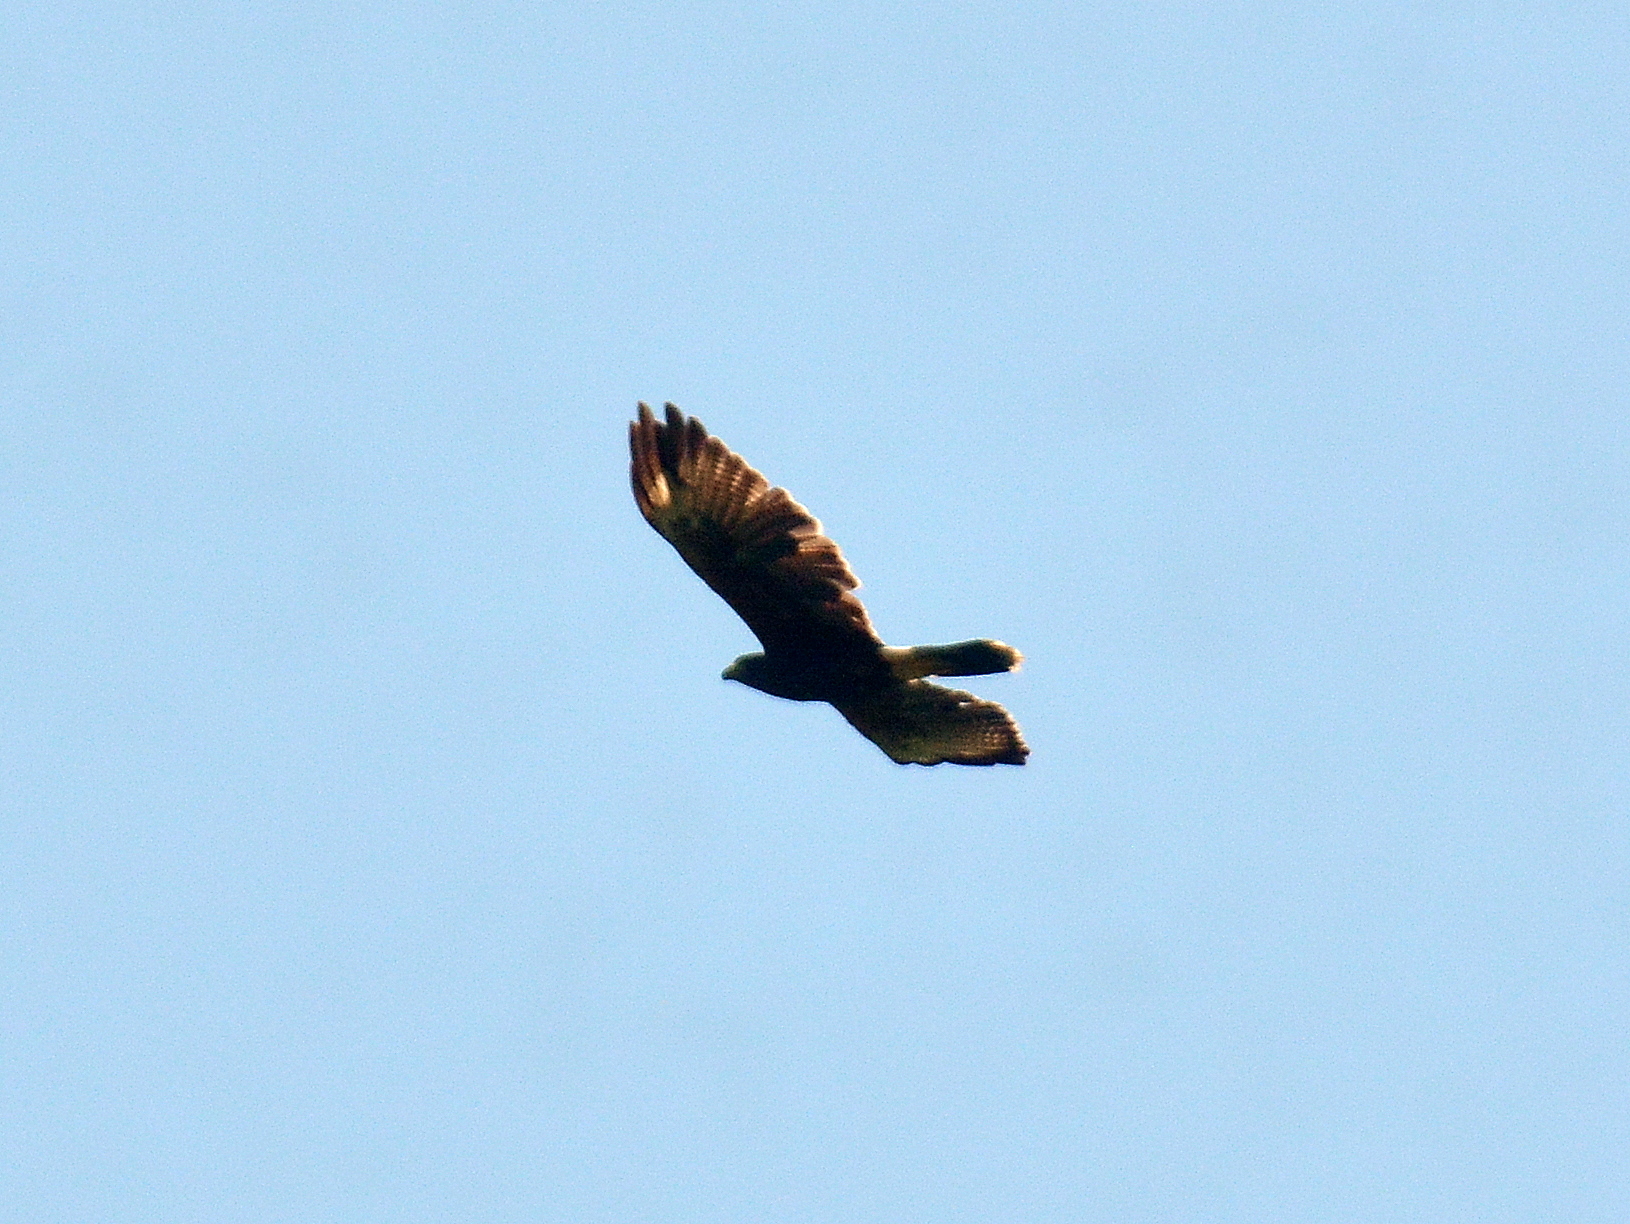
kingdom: Animalia
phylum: Chordata
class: Aves
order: Accipitriformes
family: Accipitridae
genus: Parabuteo
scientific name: Parabuteo unicinctus
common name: Harris's hawk
